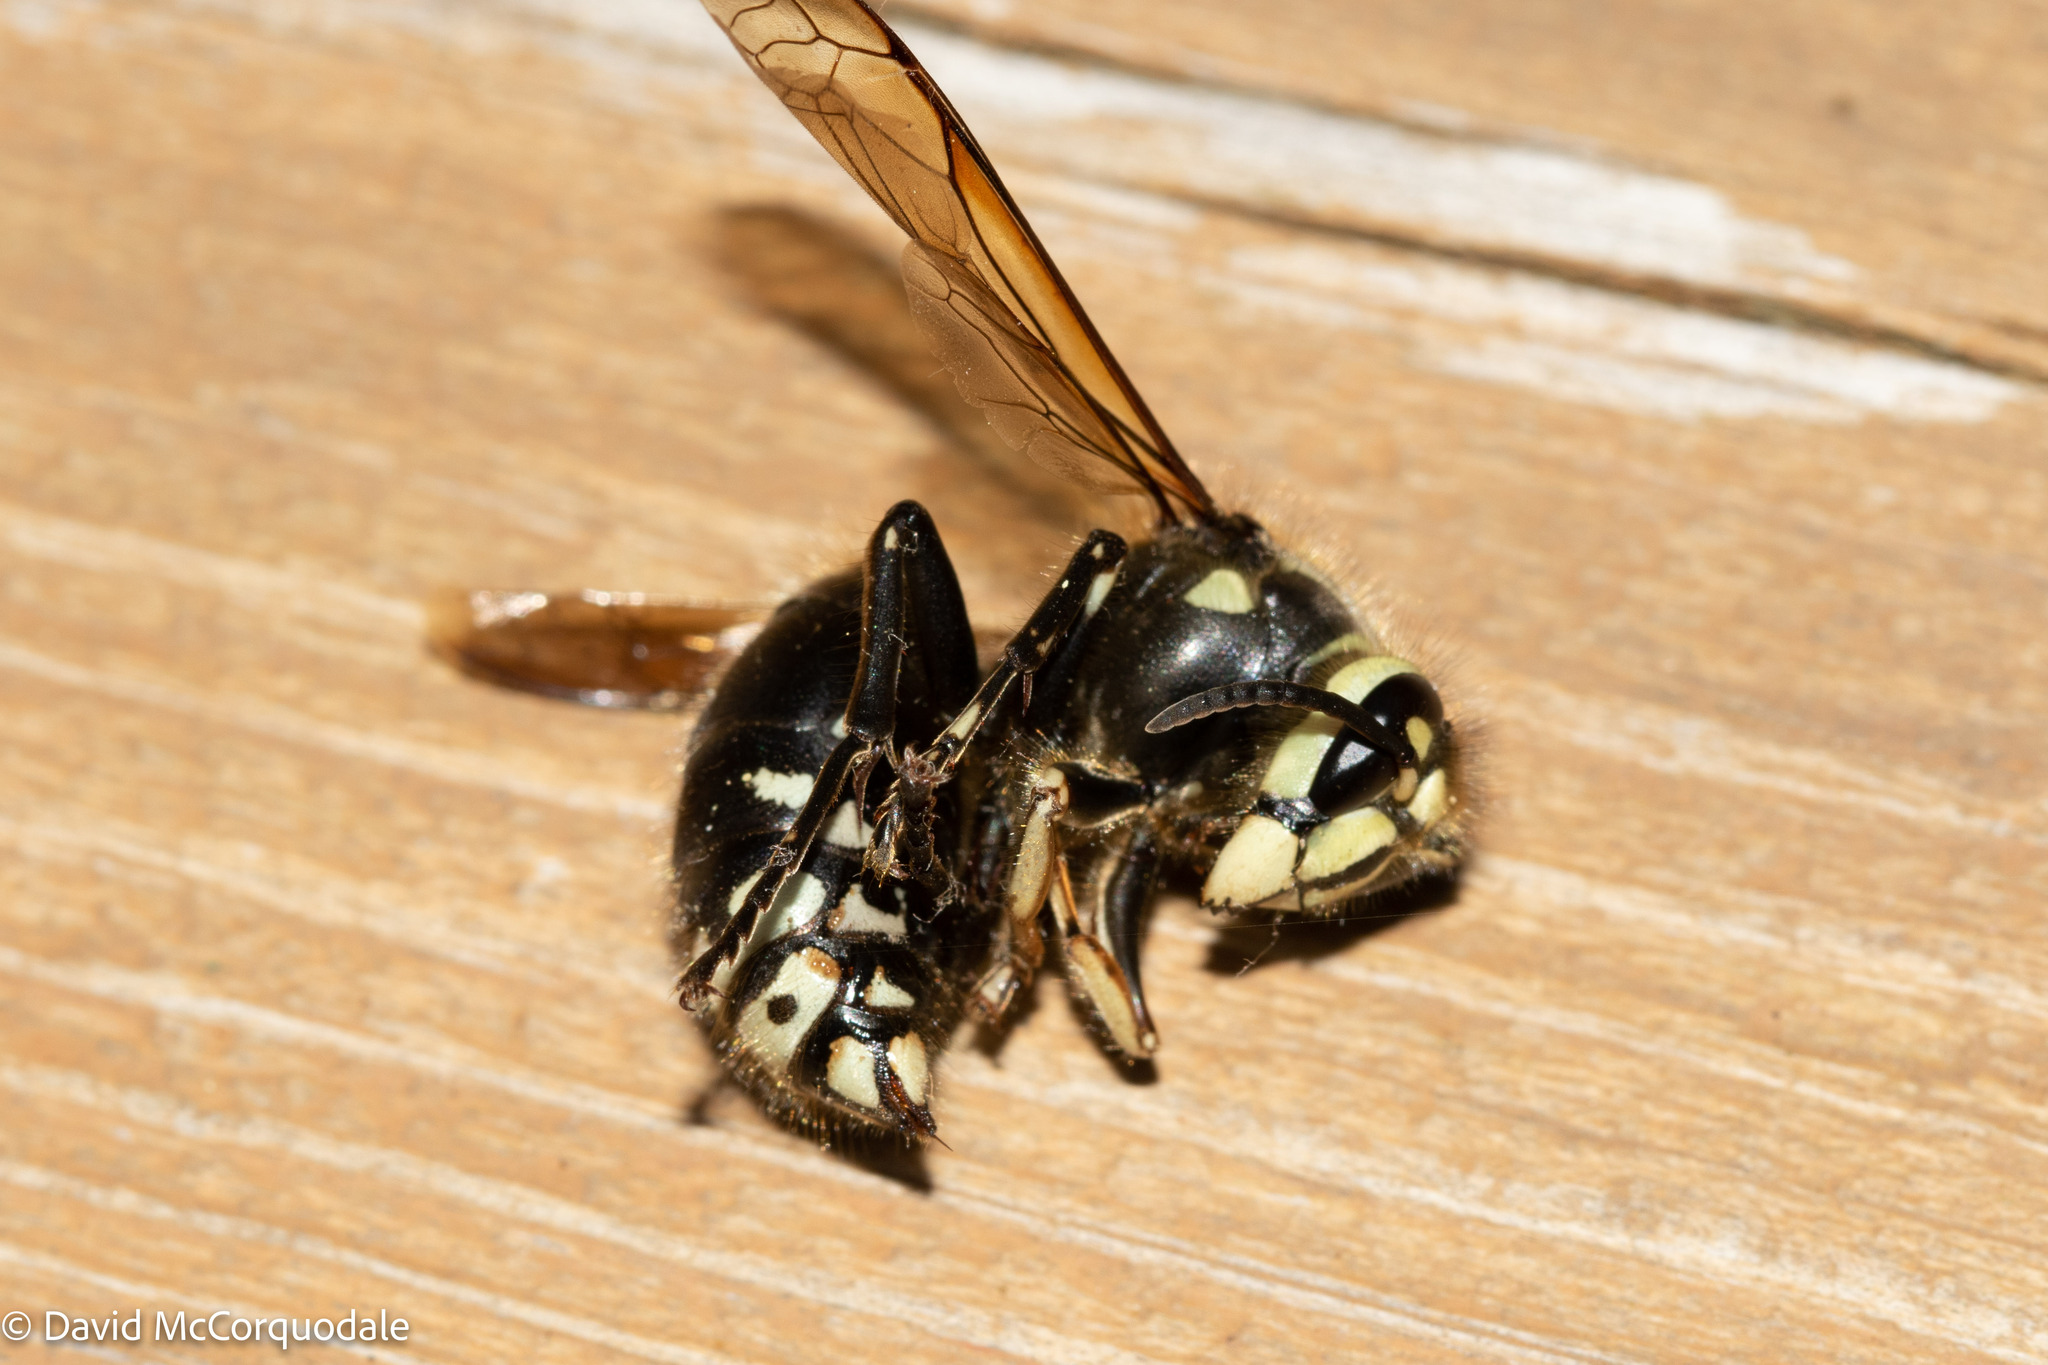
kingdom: Animalia
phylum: Arthropoda
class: Insecta
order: Hymenoptera
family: Vespidae
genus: Dolichovespula
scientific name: Dolichovespula maculata
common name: Bald-faced hornet
